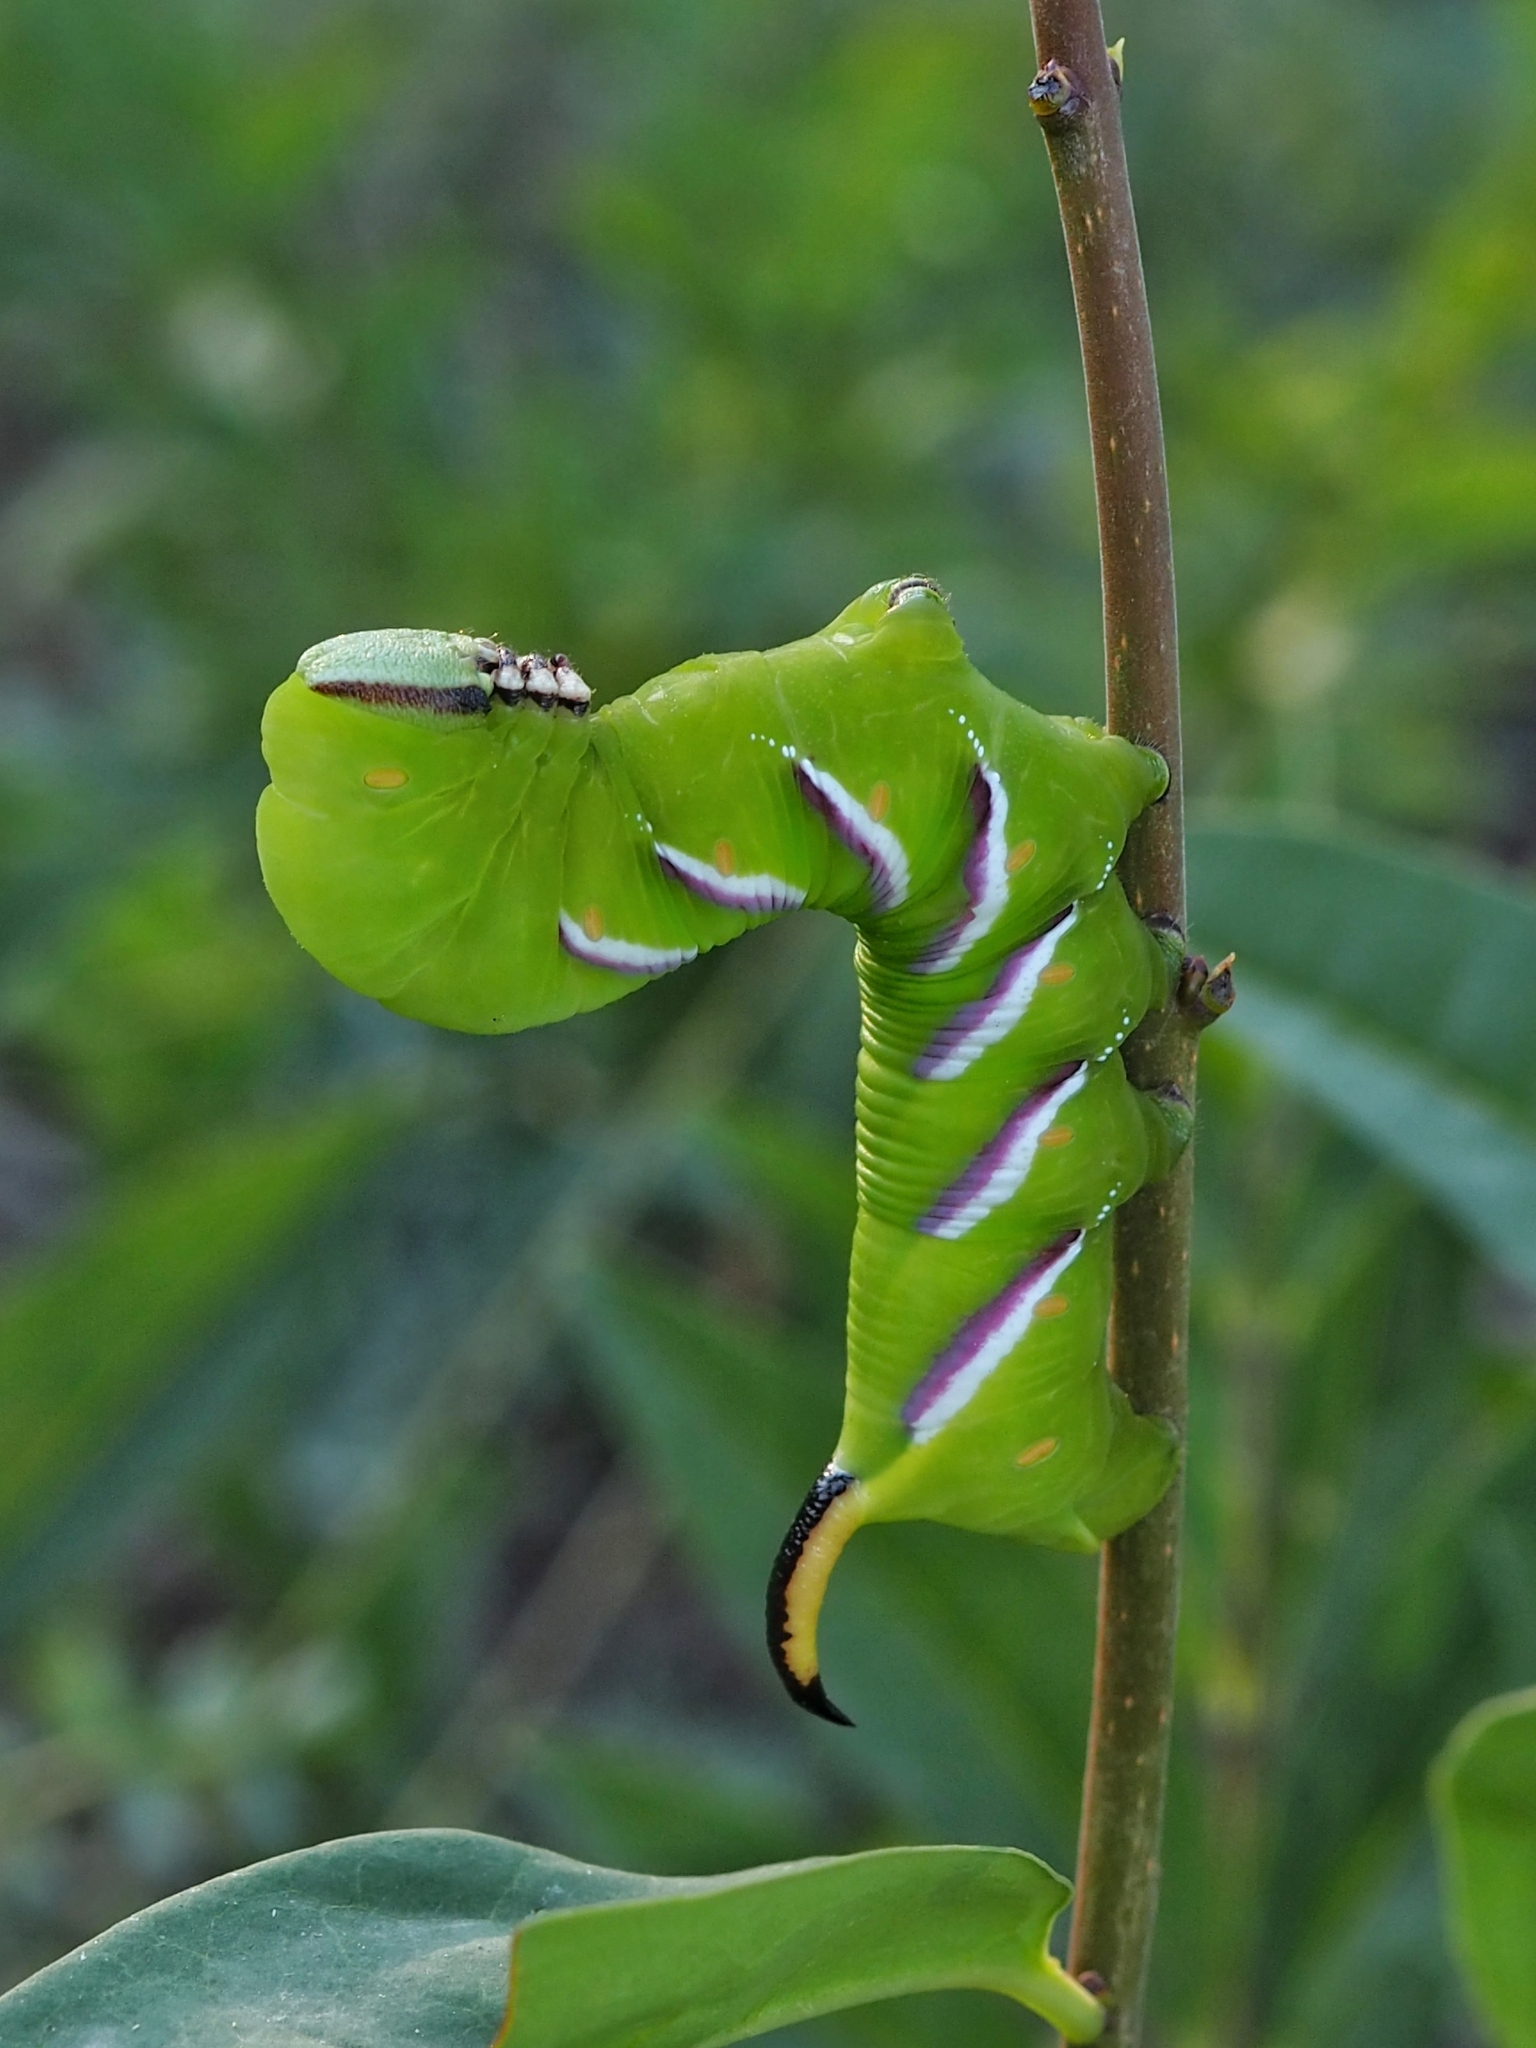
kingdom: Animalia
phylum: Arthropoda
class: Insecta
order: Lepidoptera
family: Sphingidae
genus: Sphinx
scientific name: Sphinx ligustri
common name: Privet hawk-moth
